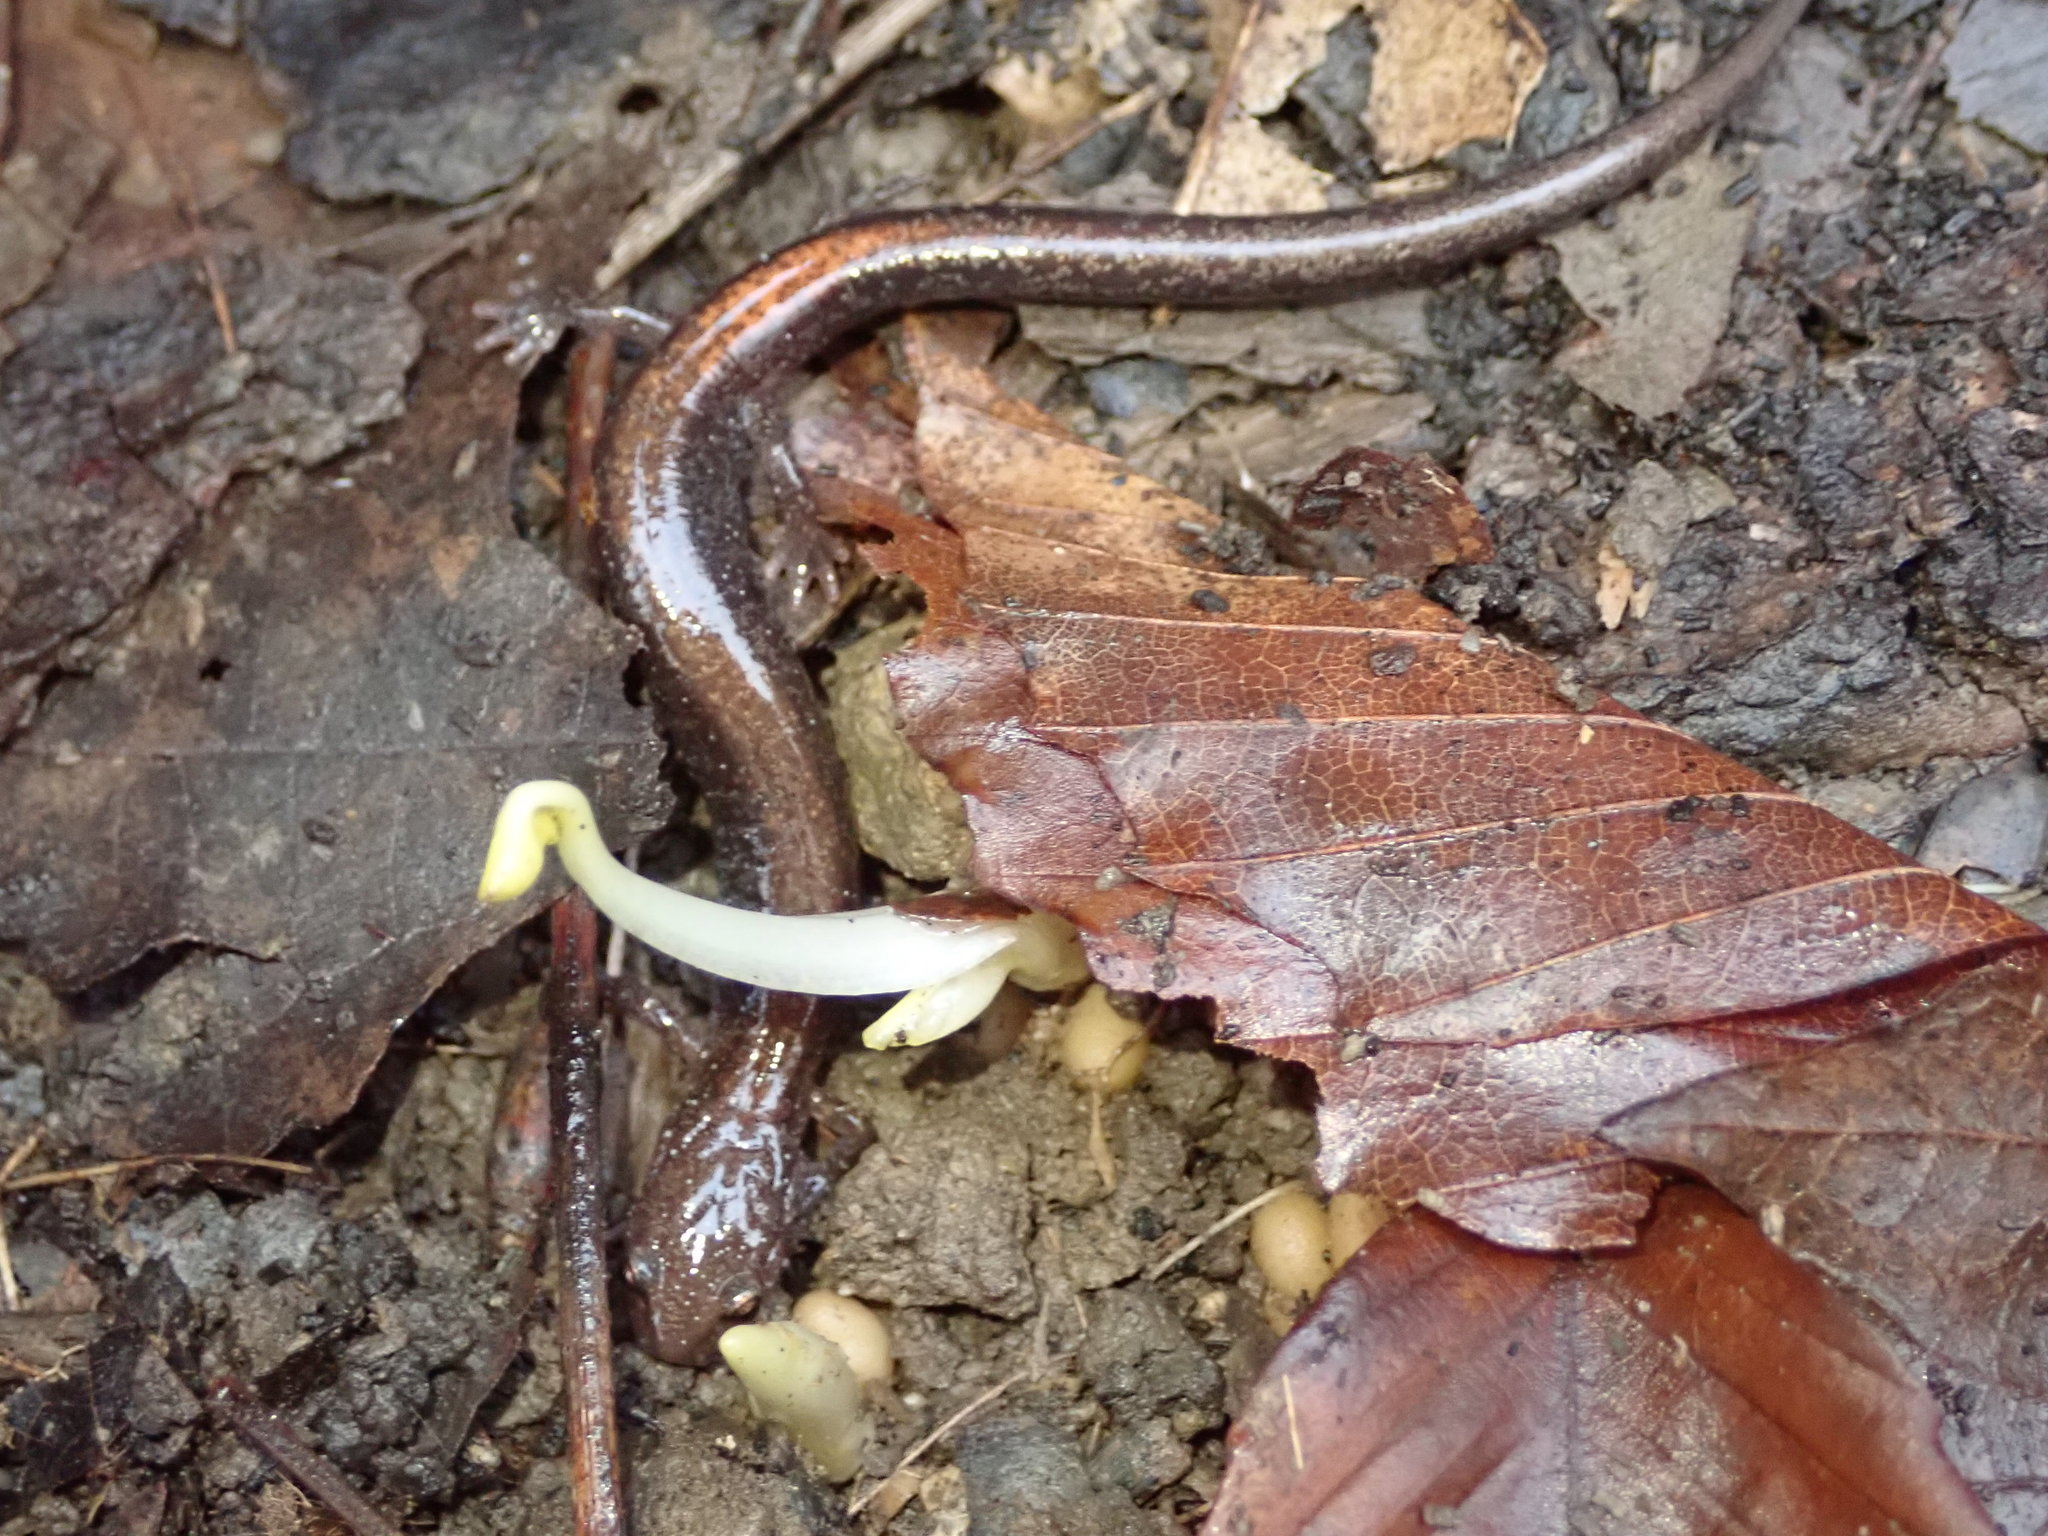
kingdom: Animalia
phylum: Chordata
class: Amphibia
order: Caudata
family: Plethodontidae
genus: Plethodon
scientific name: Plethodon cinereus
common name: Redback salamander
